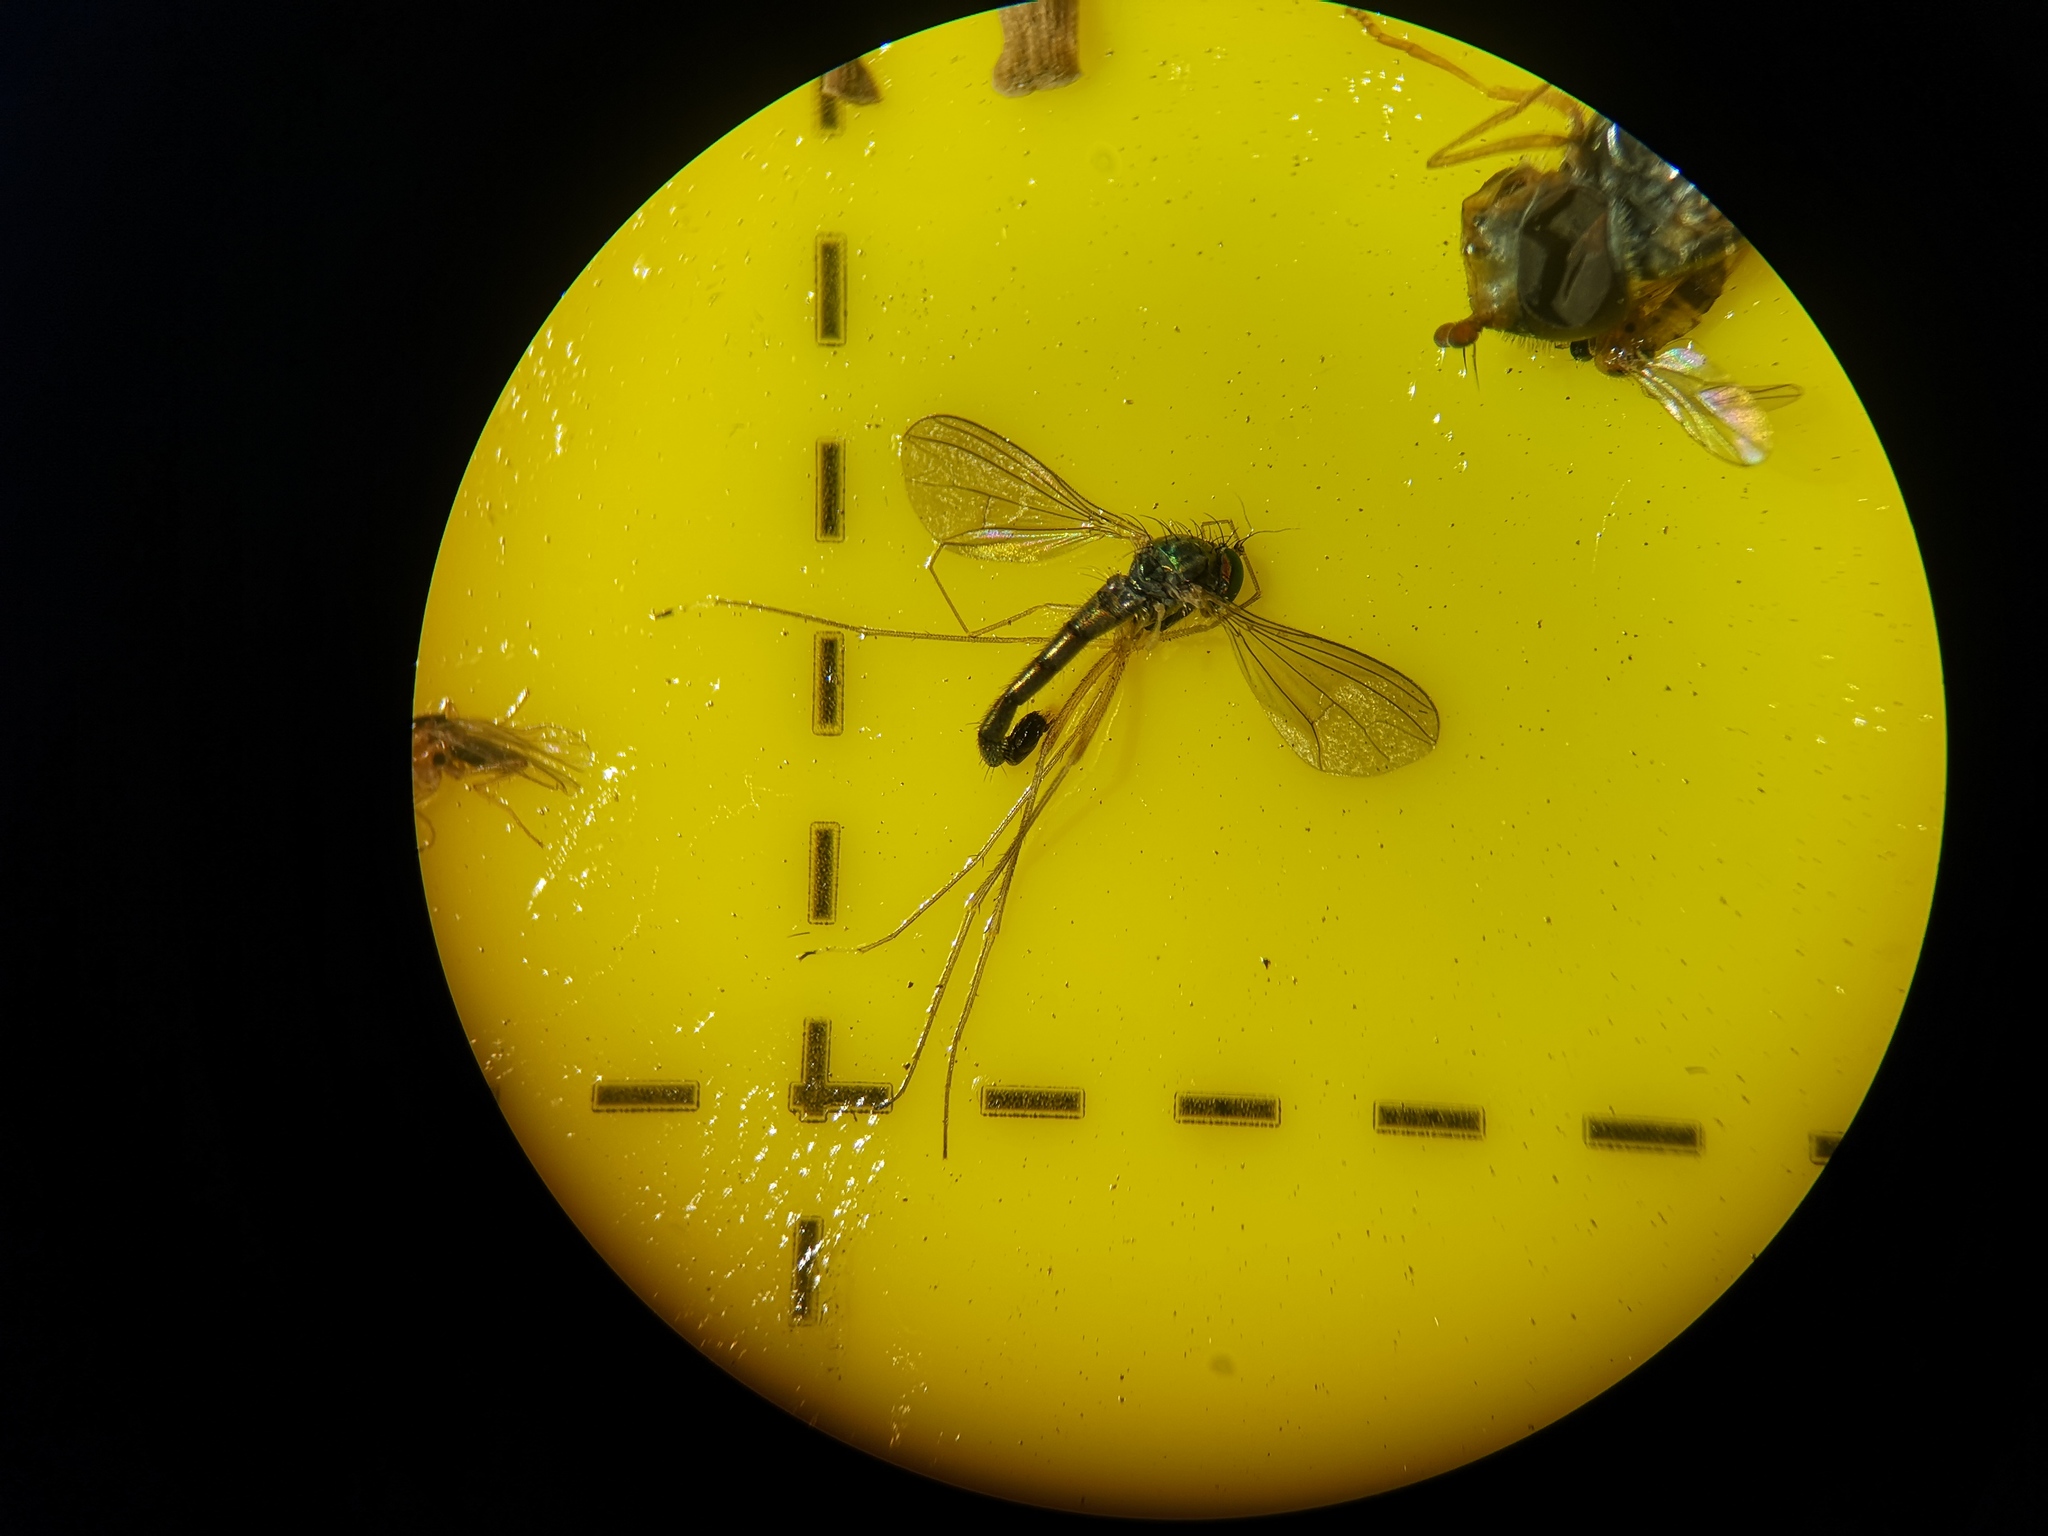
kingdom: Animalia
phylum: Arthropoda
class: Insecta
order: Diptera
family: Dolichopodidae
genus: Sciapus
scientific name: Sciapus platypterus
